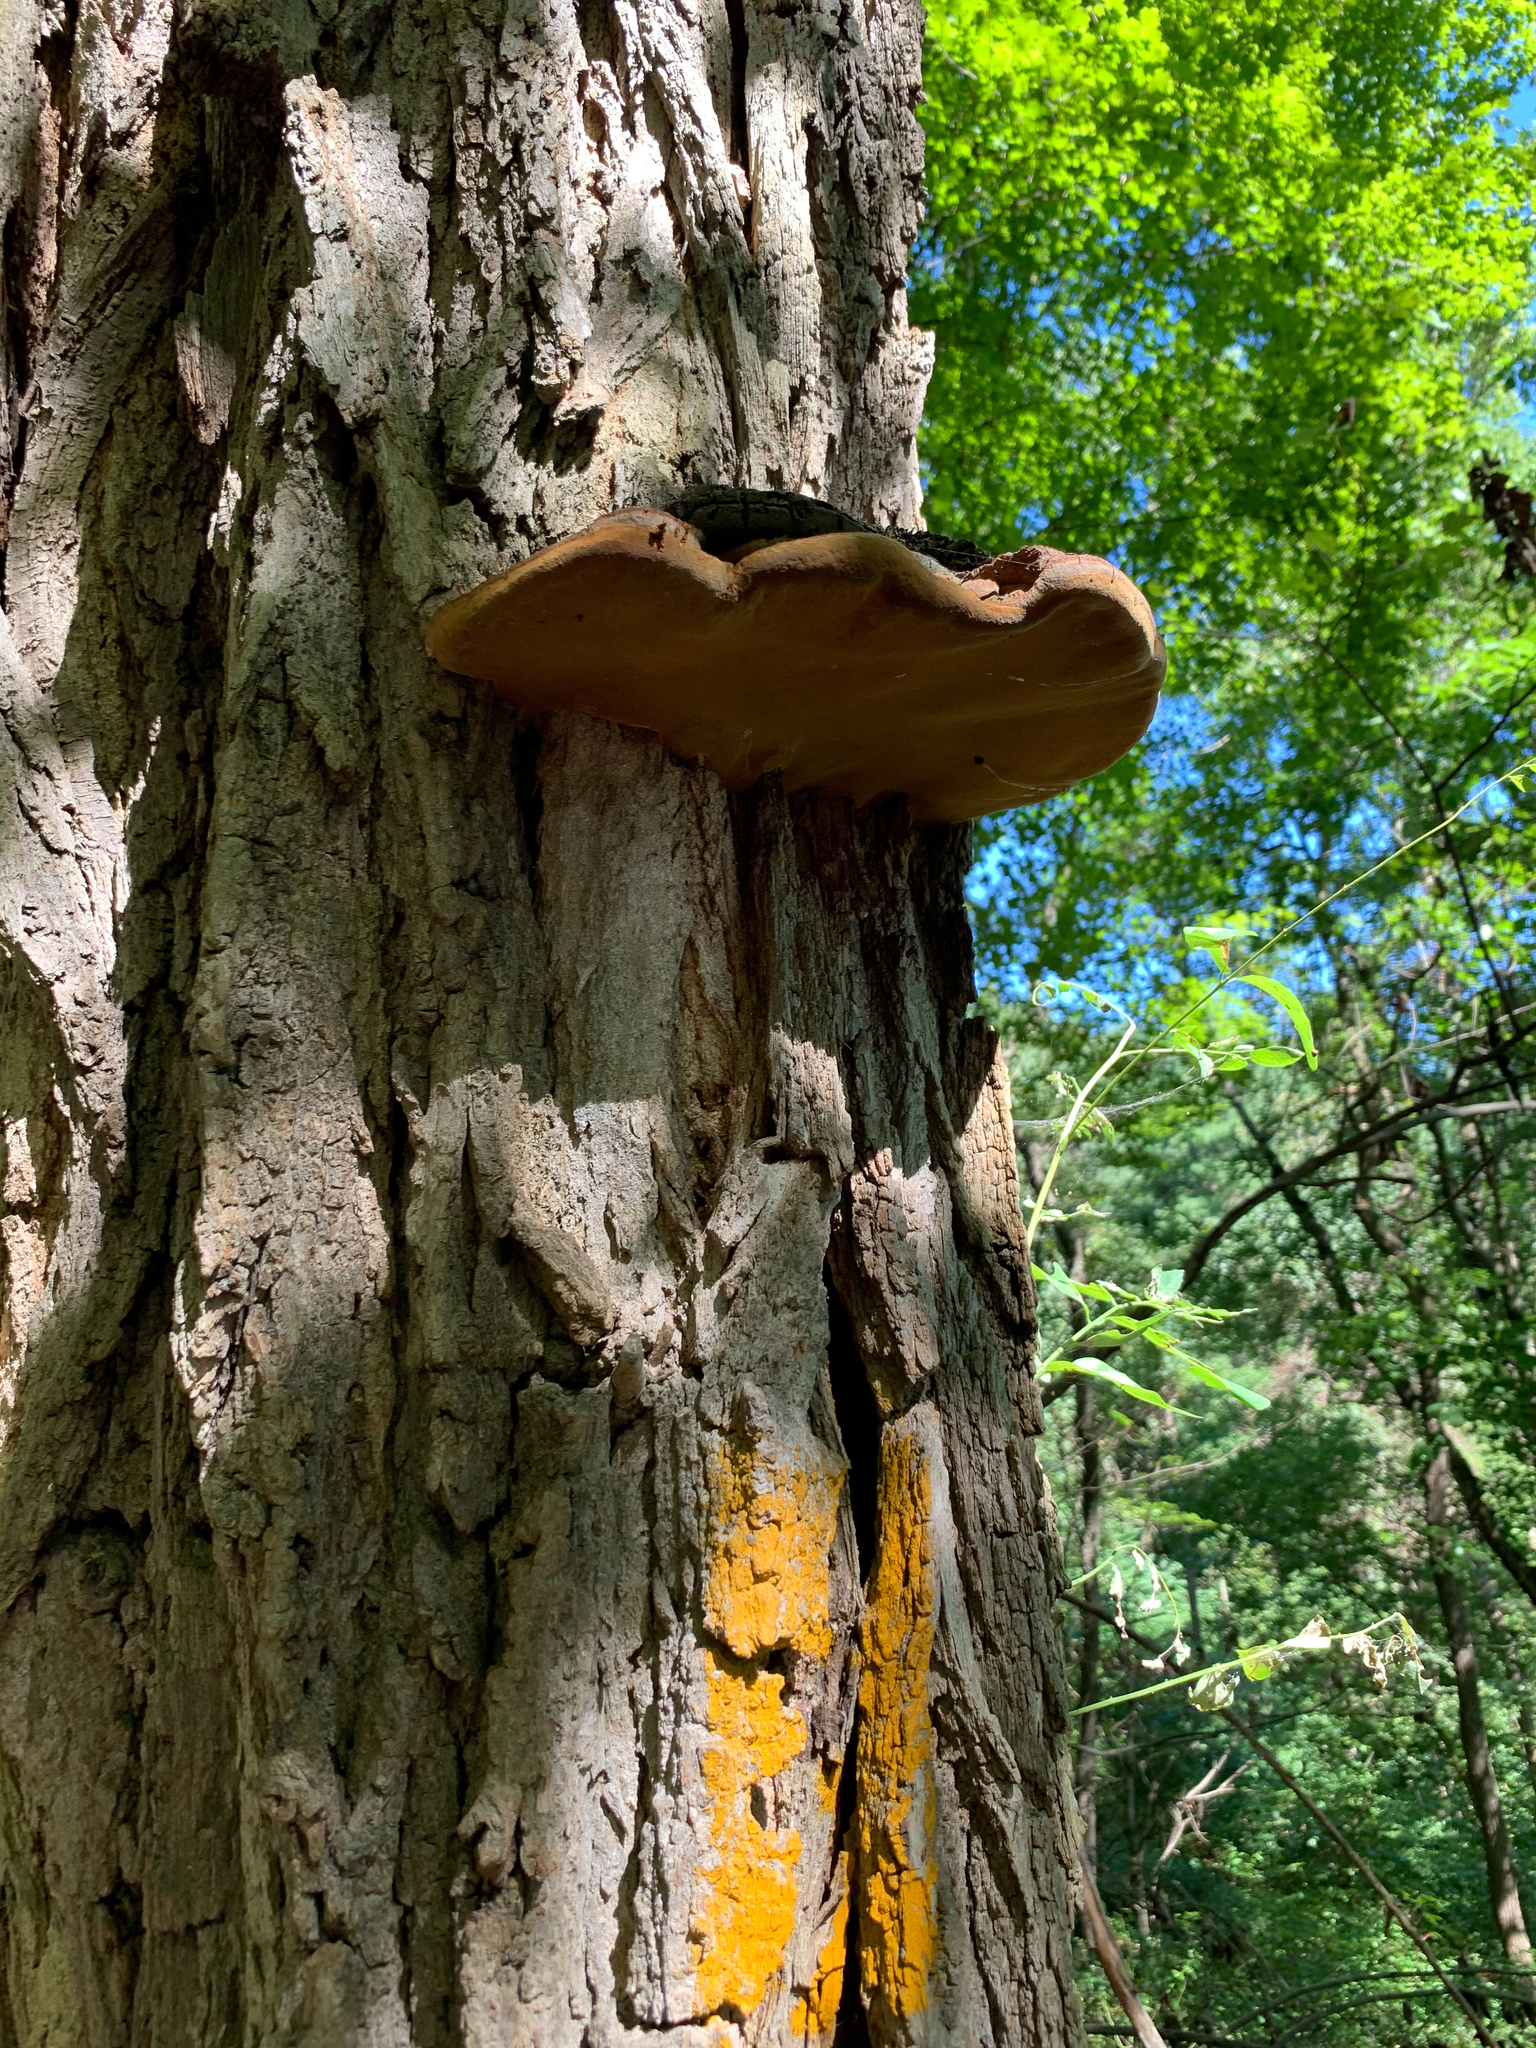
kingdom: Fungi
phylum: Basidiomycota
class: Agaricomycetes
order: Hymenochaetales
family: Hymenochaetaceae
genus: Phellinus
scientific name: Phellinus robiniae
